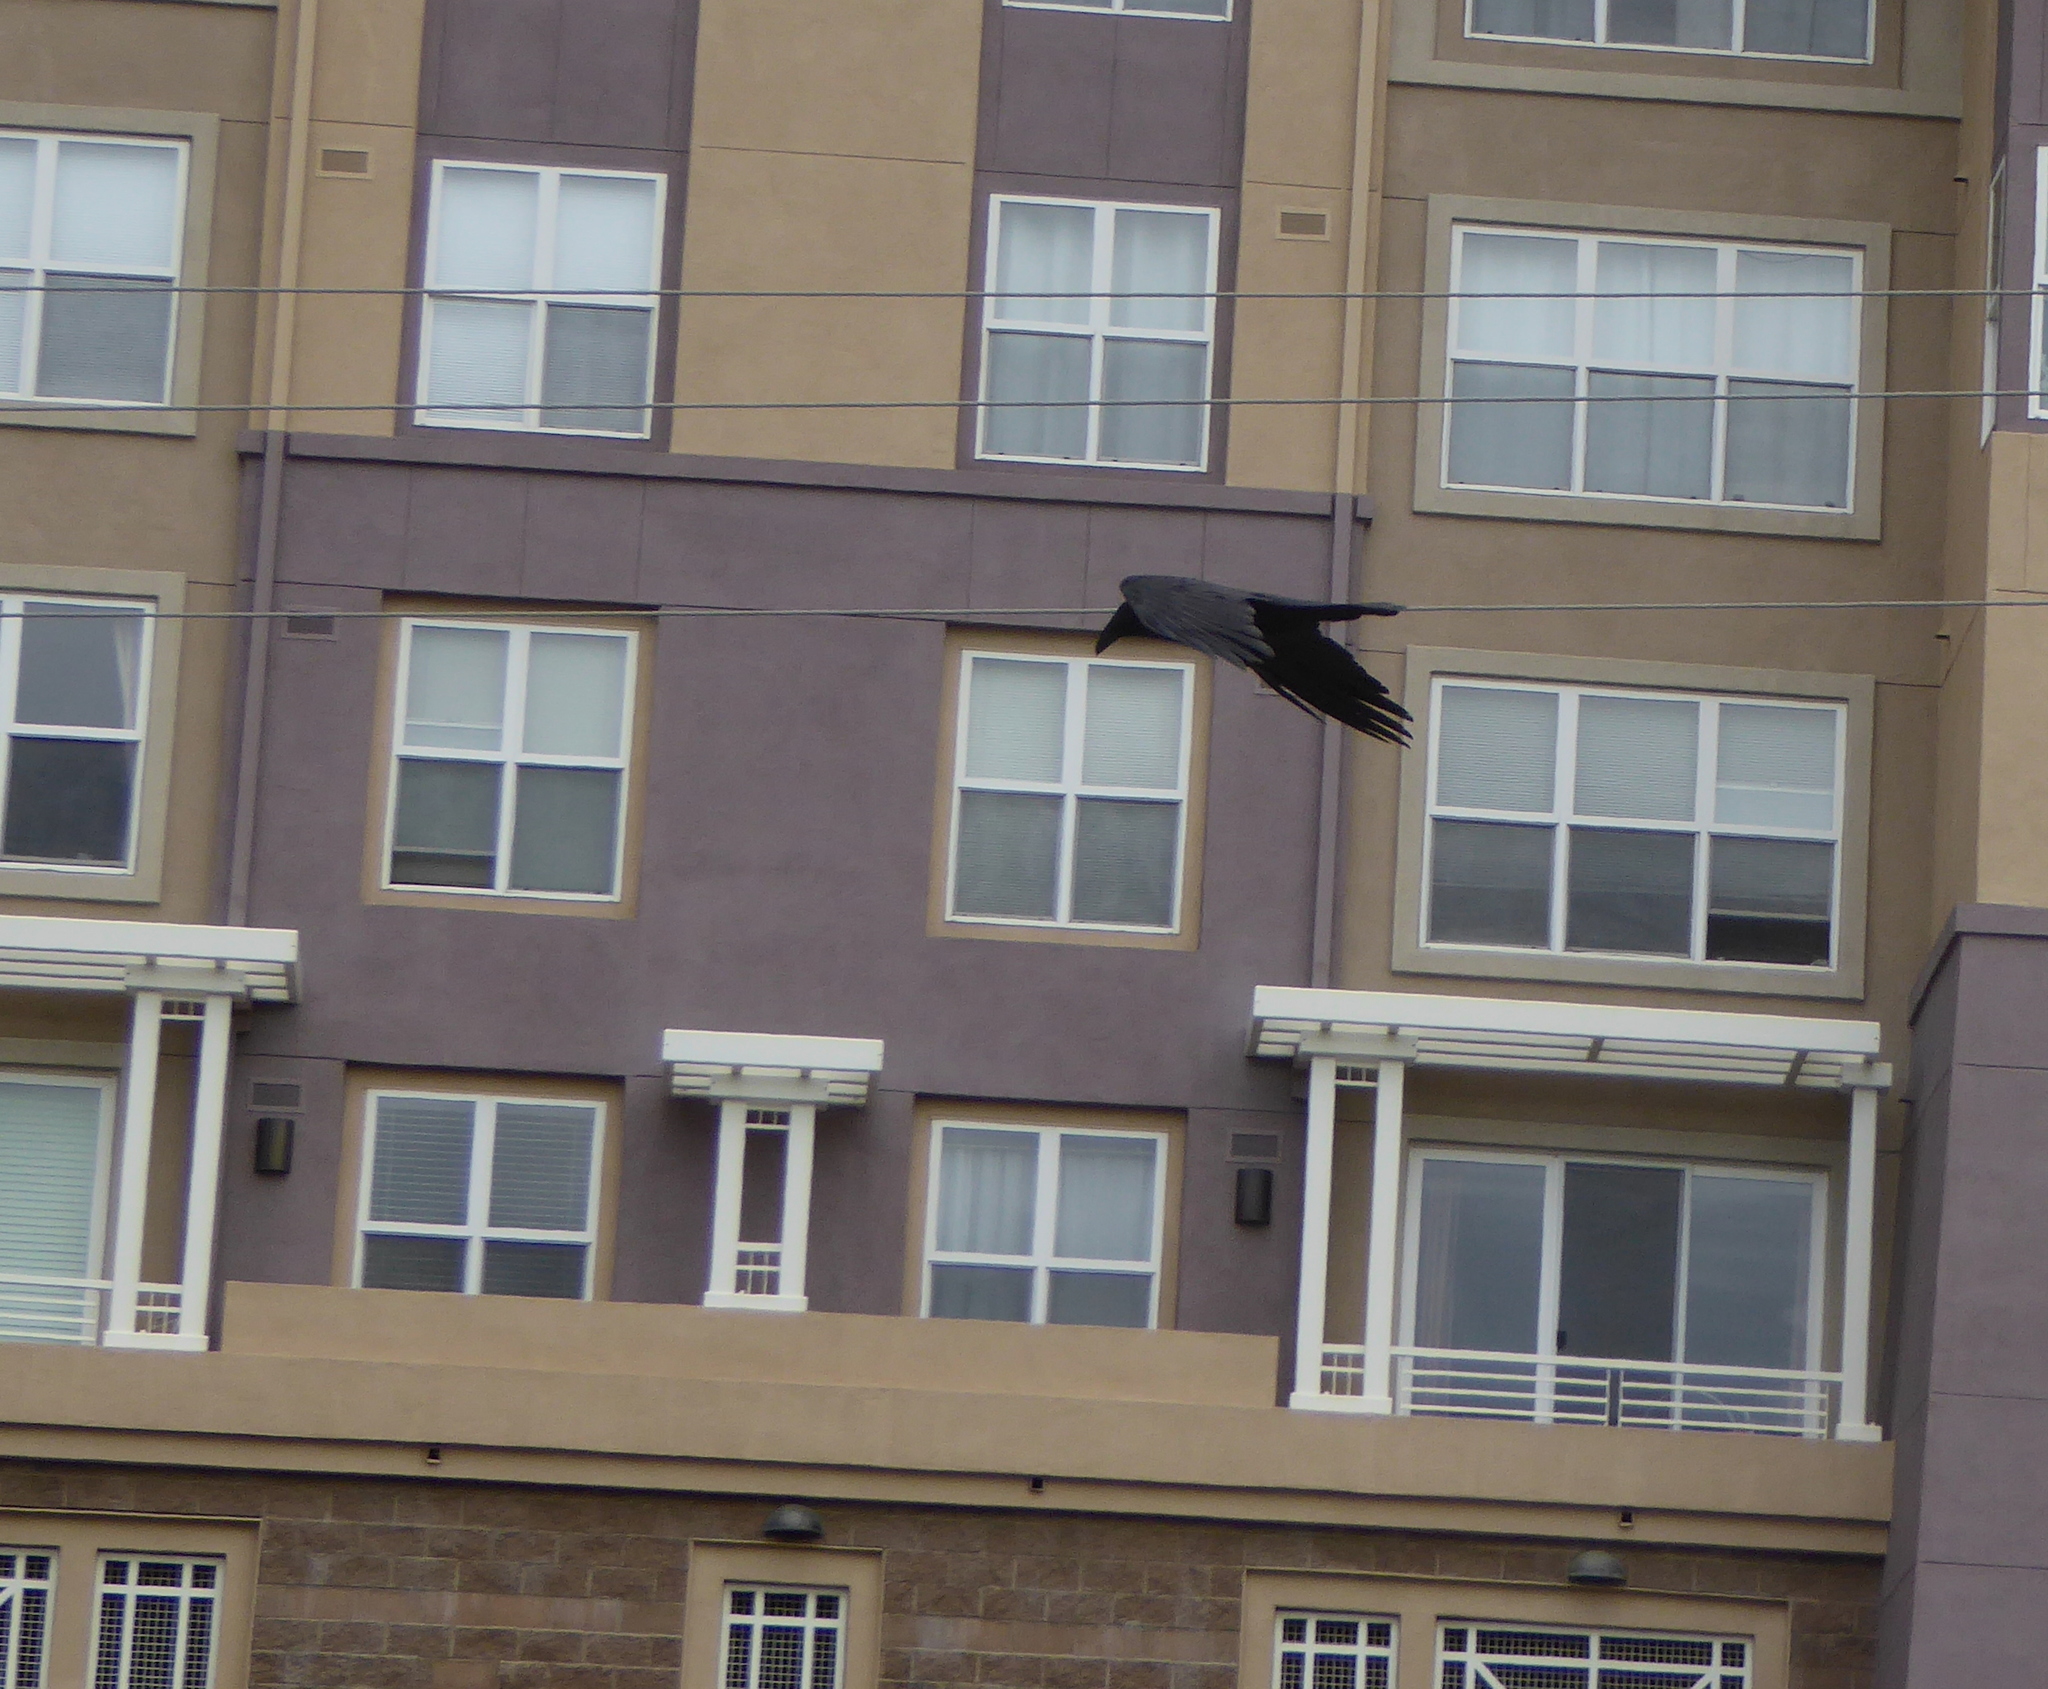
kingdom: Animalia
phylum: Chordata
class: Aves
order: Passeriformes
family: Corvidae
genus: Corvus
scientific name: Corvus corax
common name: Common raven
